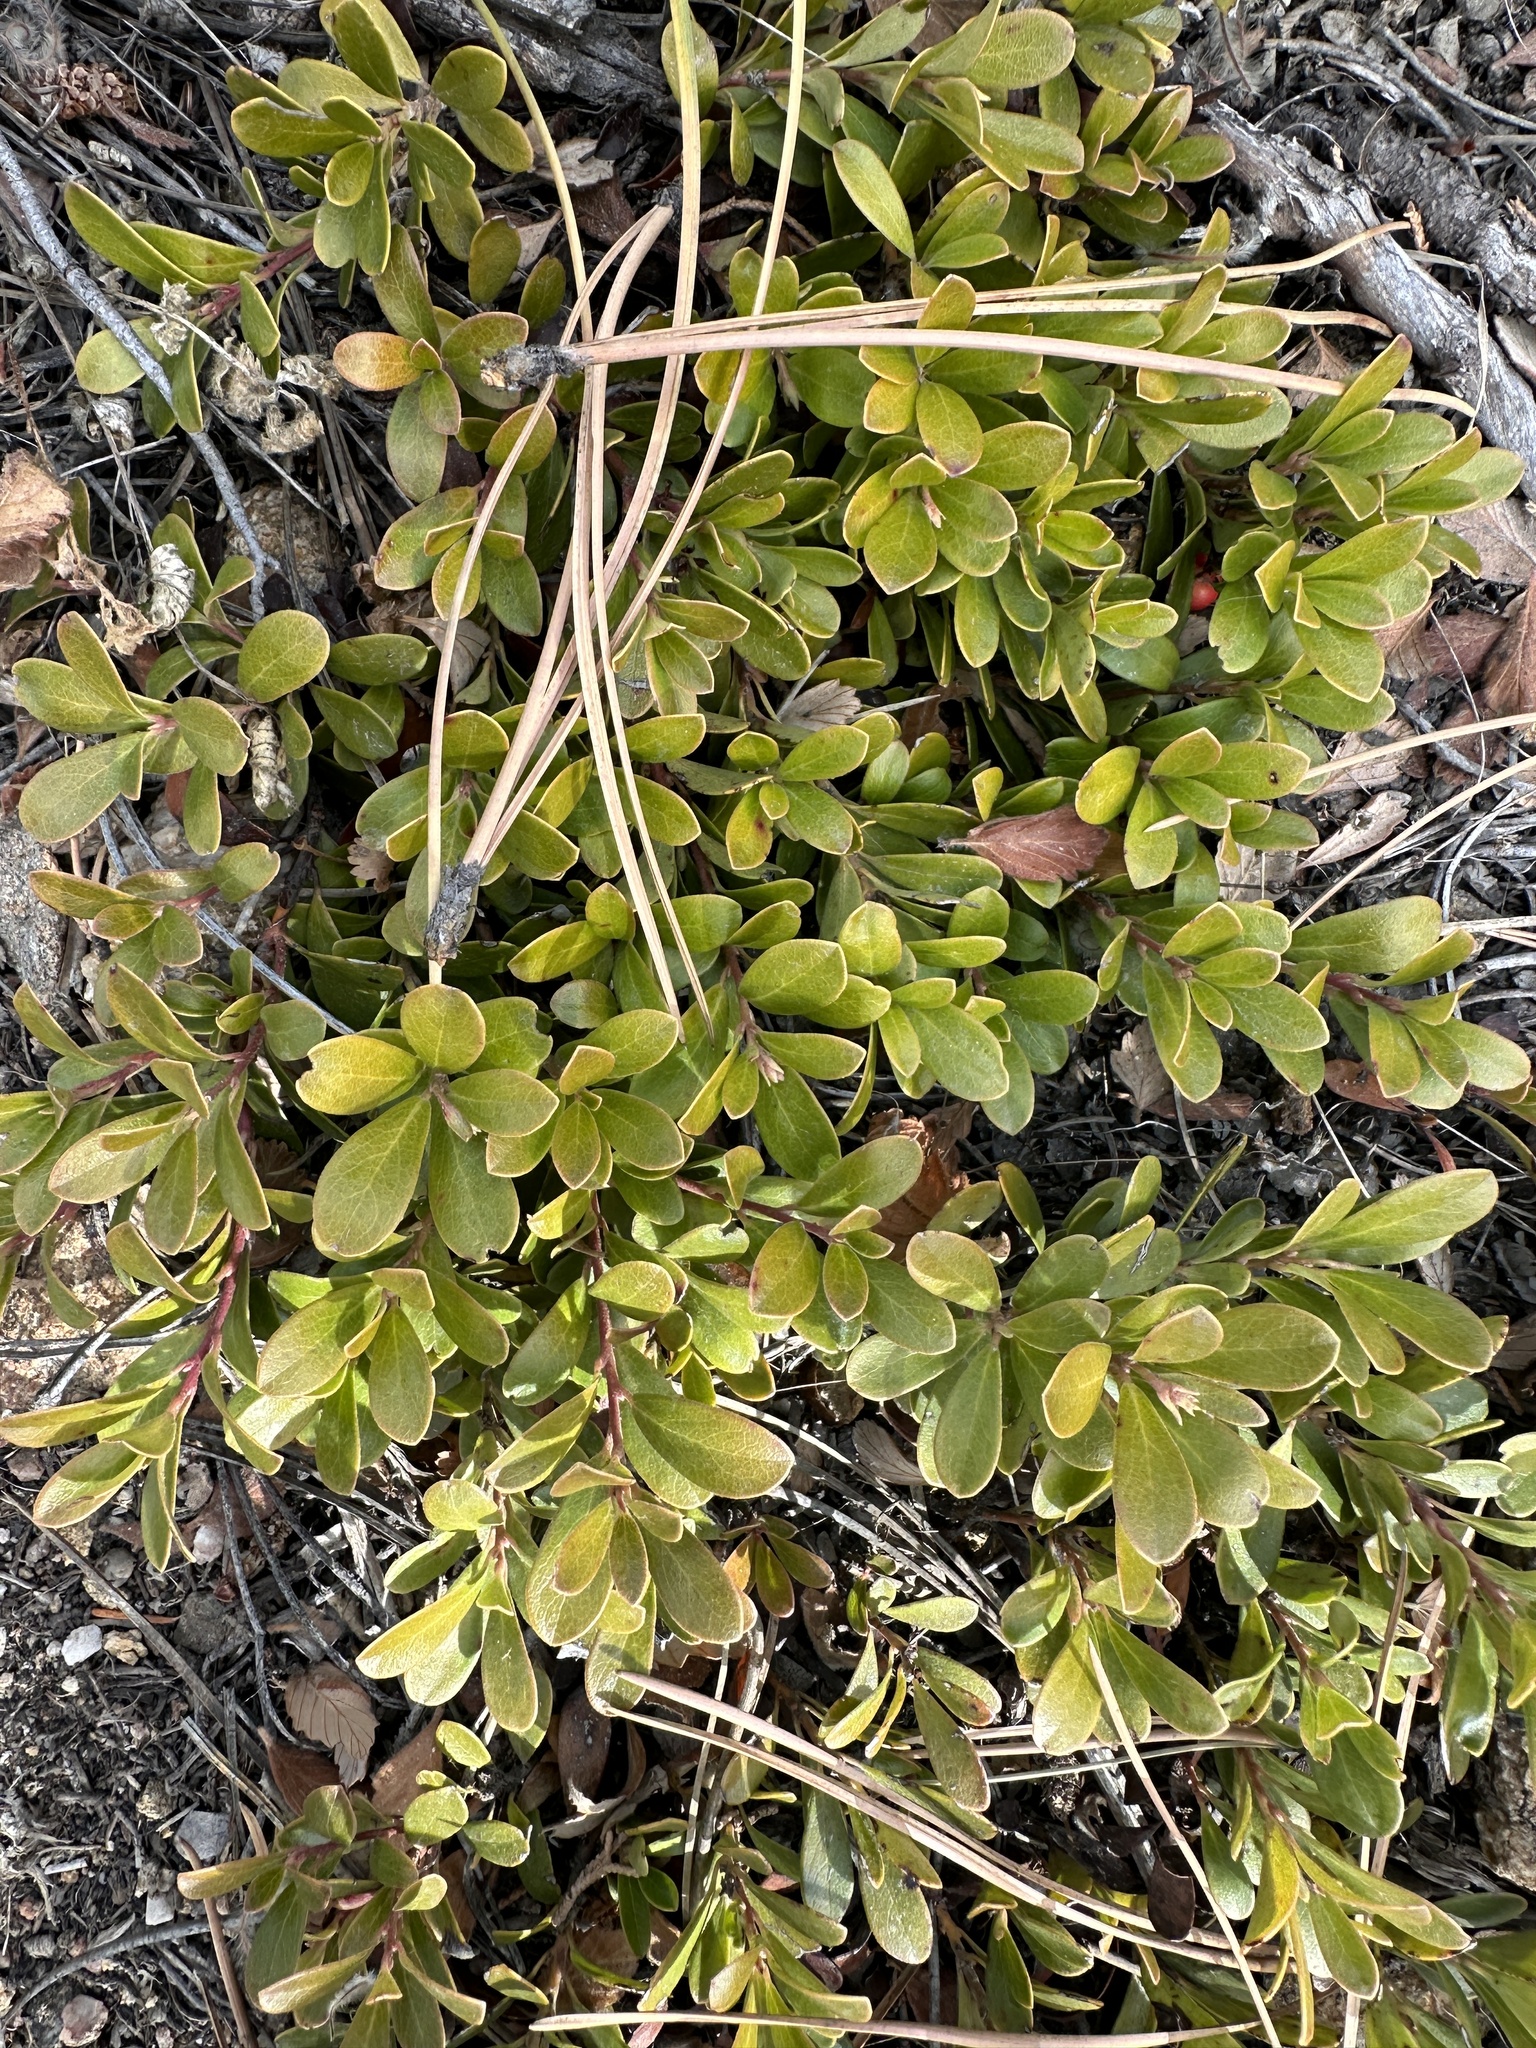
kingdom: Plantae
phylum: Tracheophyta
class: Magnoliopsida
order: Ericales
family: Ericaceae
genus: Arctostaphylos
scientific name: Arctostaphylos uva-ursi
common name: Bearberry
